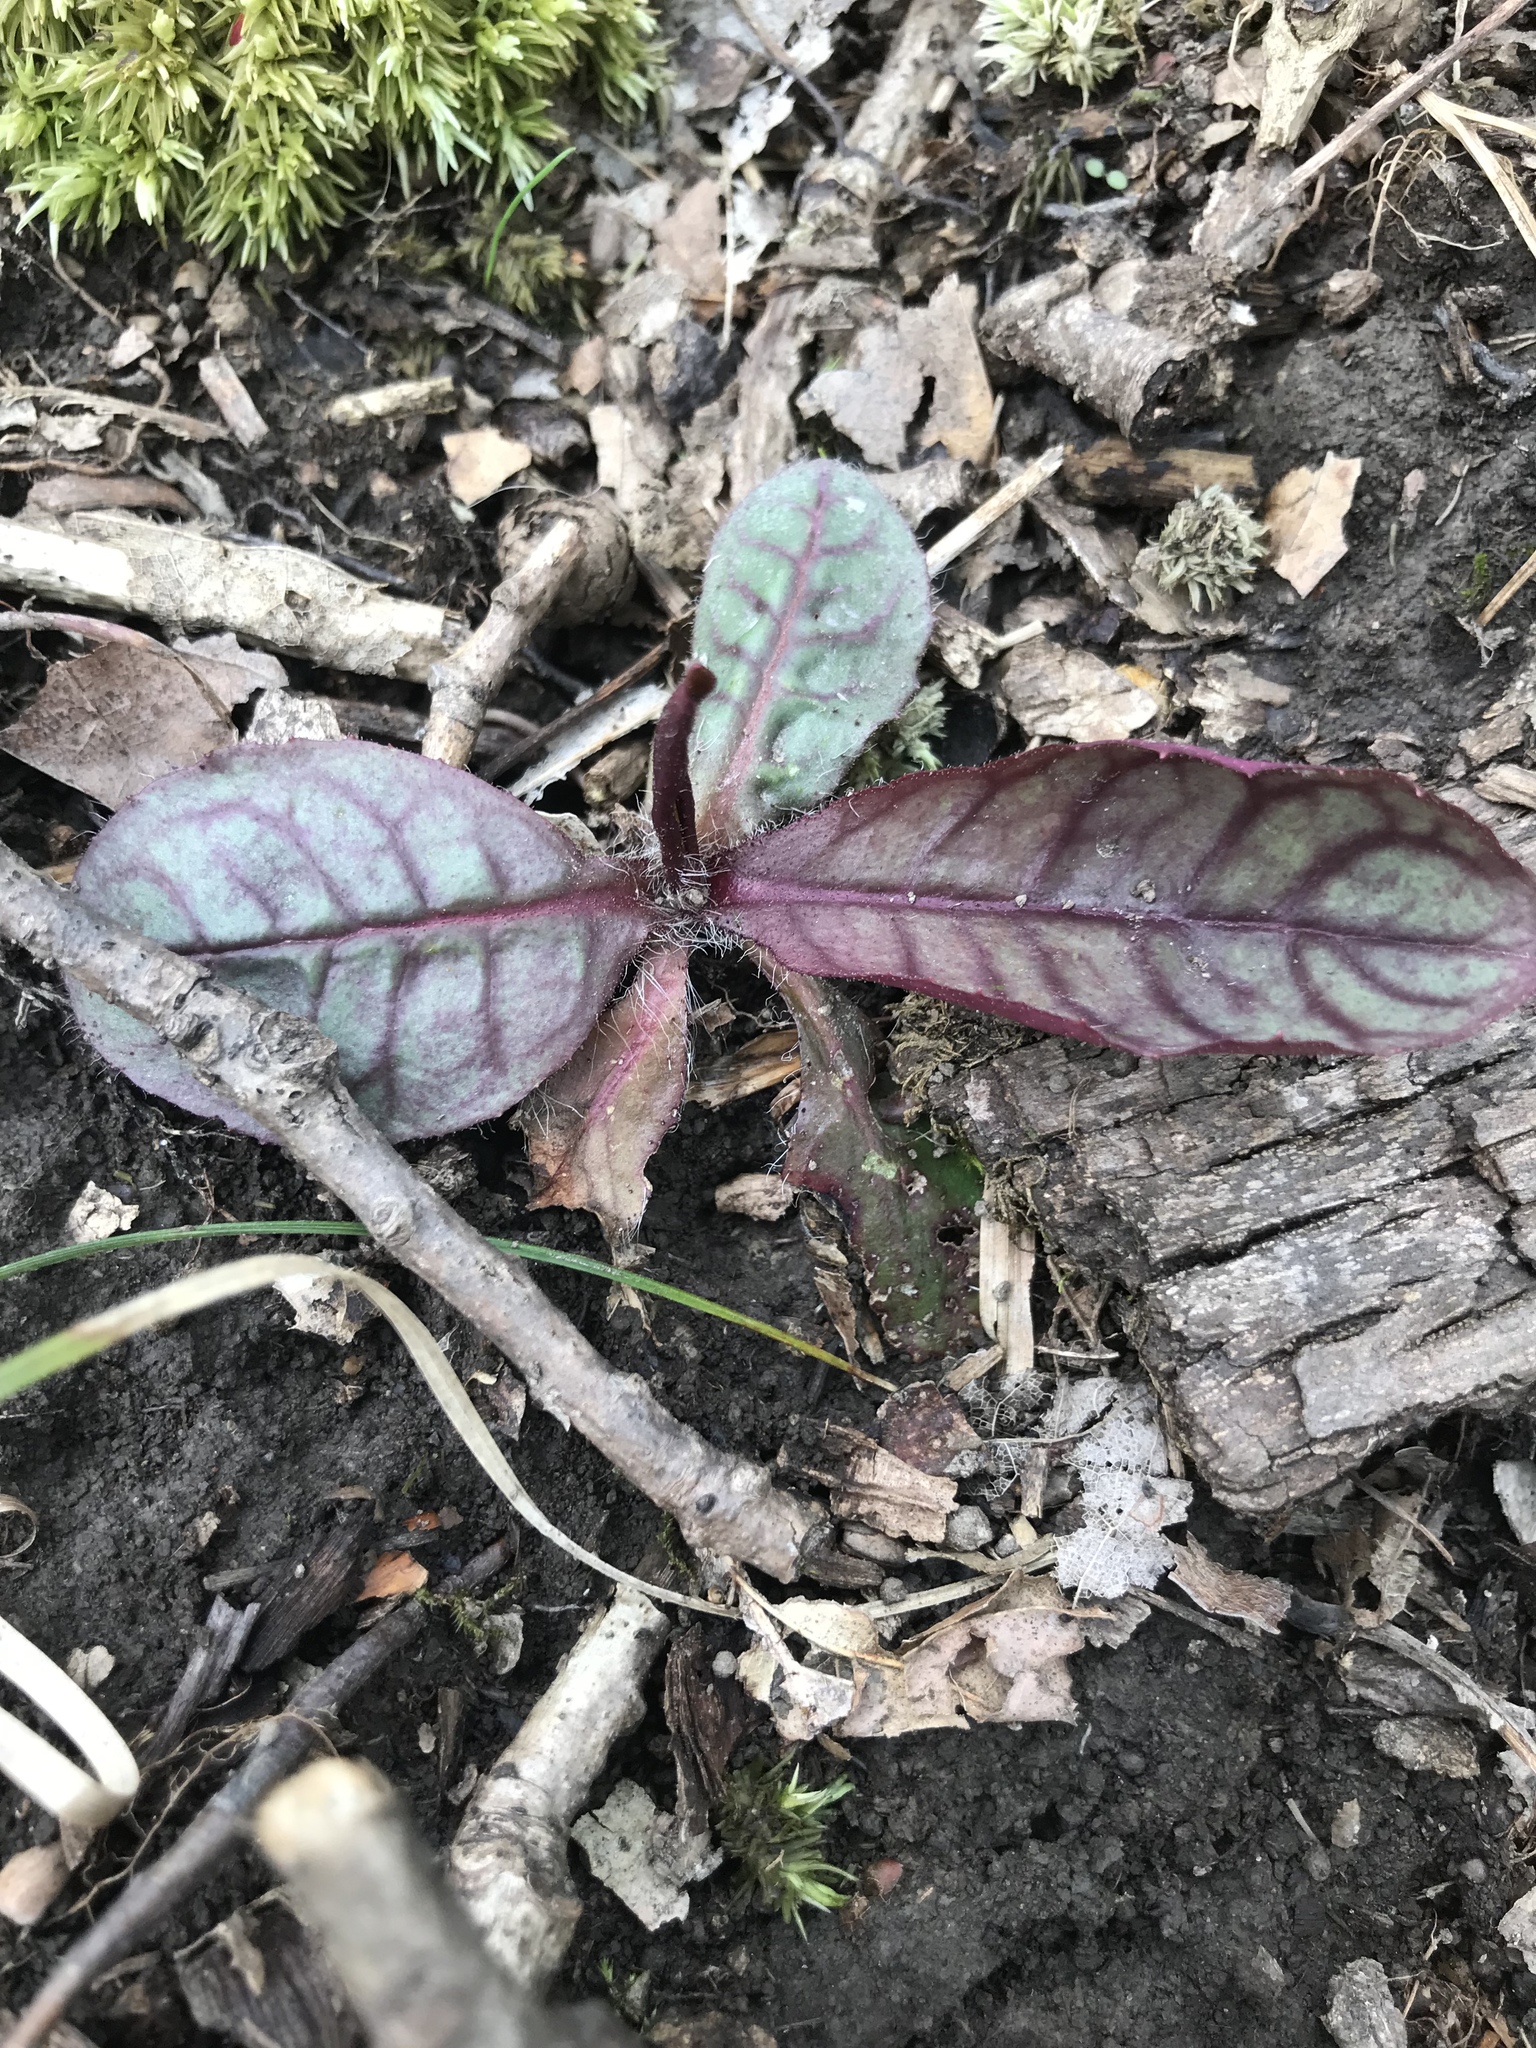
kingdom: Plantae
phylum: Tracheophyta
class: Magnoliopsida
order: Asterales
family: Asteraceae
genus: Hieracium
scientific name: Hieracium venosum
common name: Rattlesnake hawkweed
